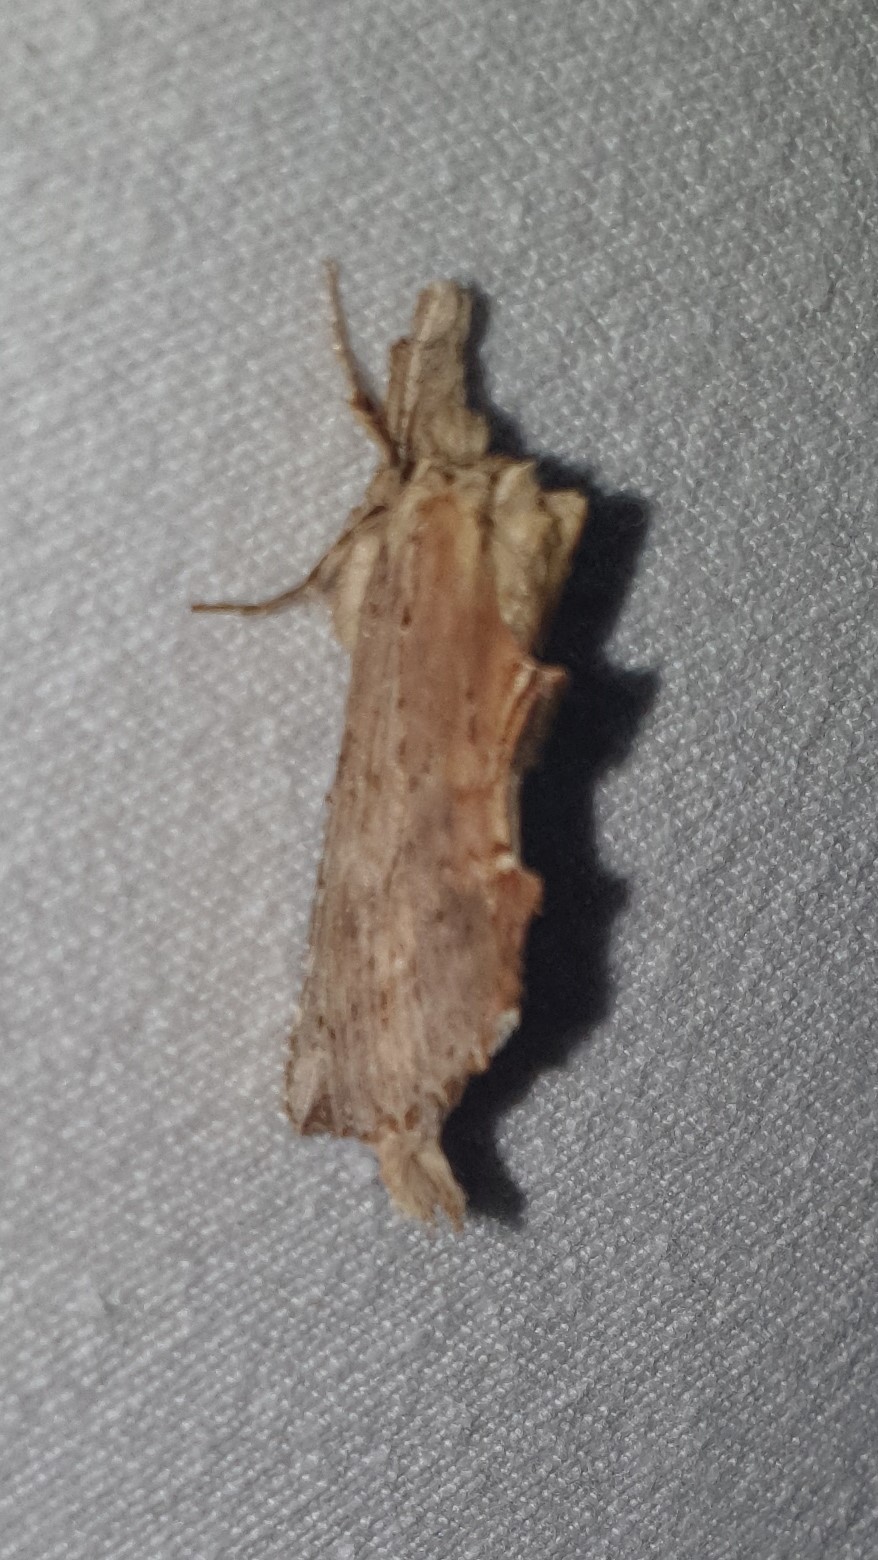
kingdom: Animalia
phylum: Arthropoda
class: Insecta
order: Lepidoptera
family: Notodontidae
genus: Pterostoma
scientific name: Pterostoma palpina
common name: Pale prominent
